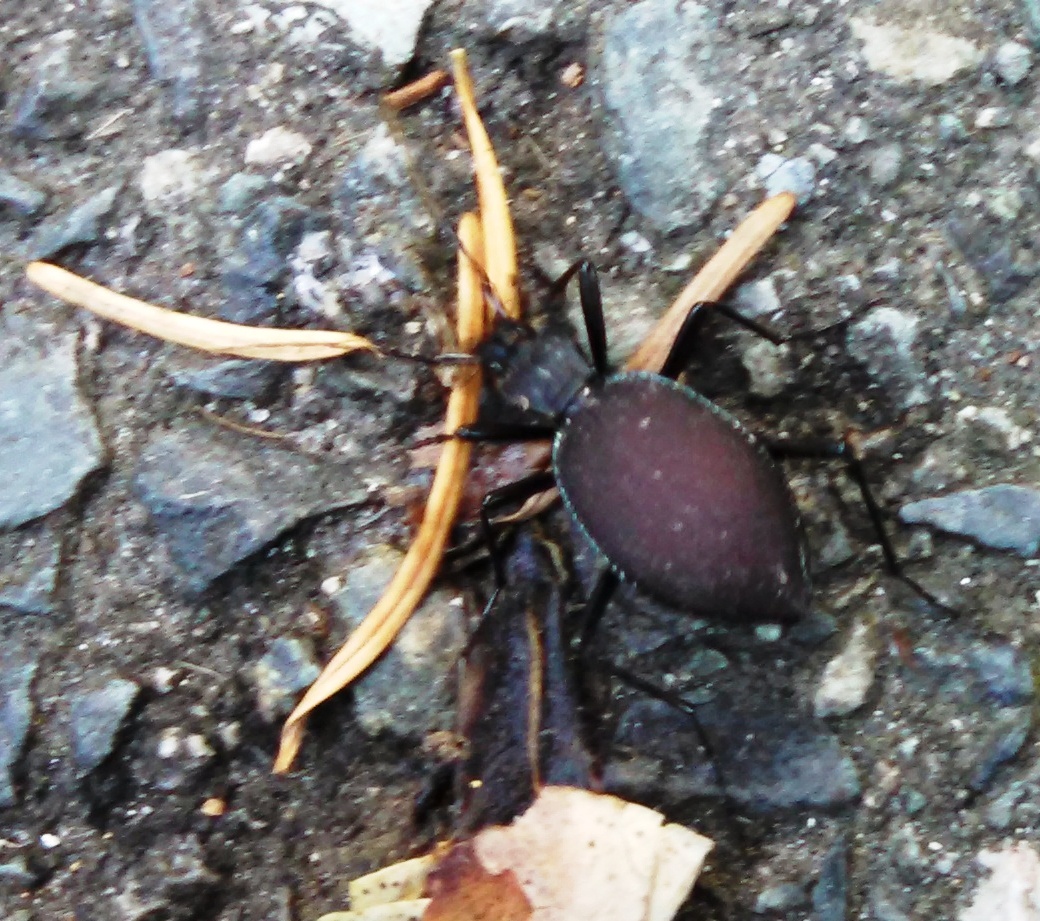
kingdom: Animalia
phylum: Arthropoda
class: Insecta
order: Coleoptera
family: Carabidae
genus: Scaphinotus
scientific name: Scaphinotus angusticollis
